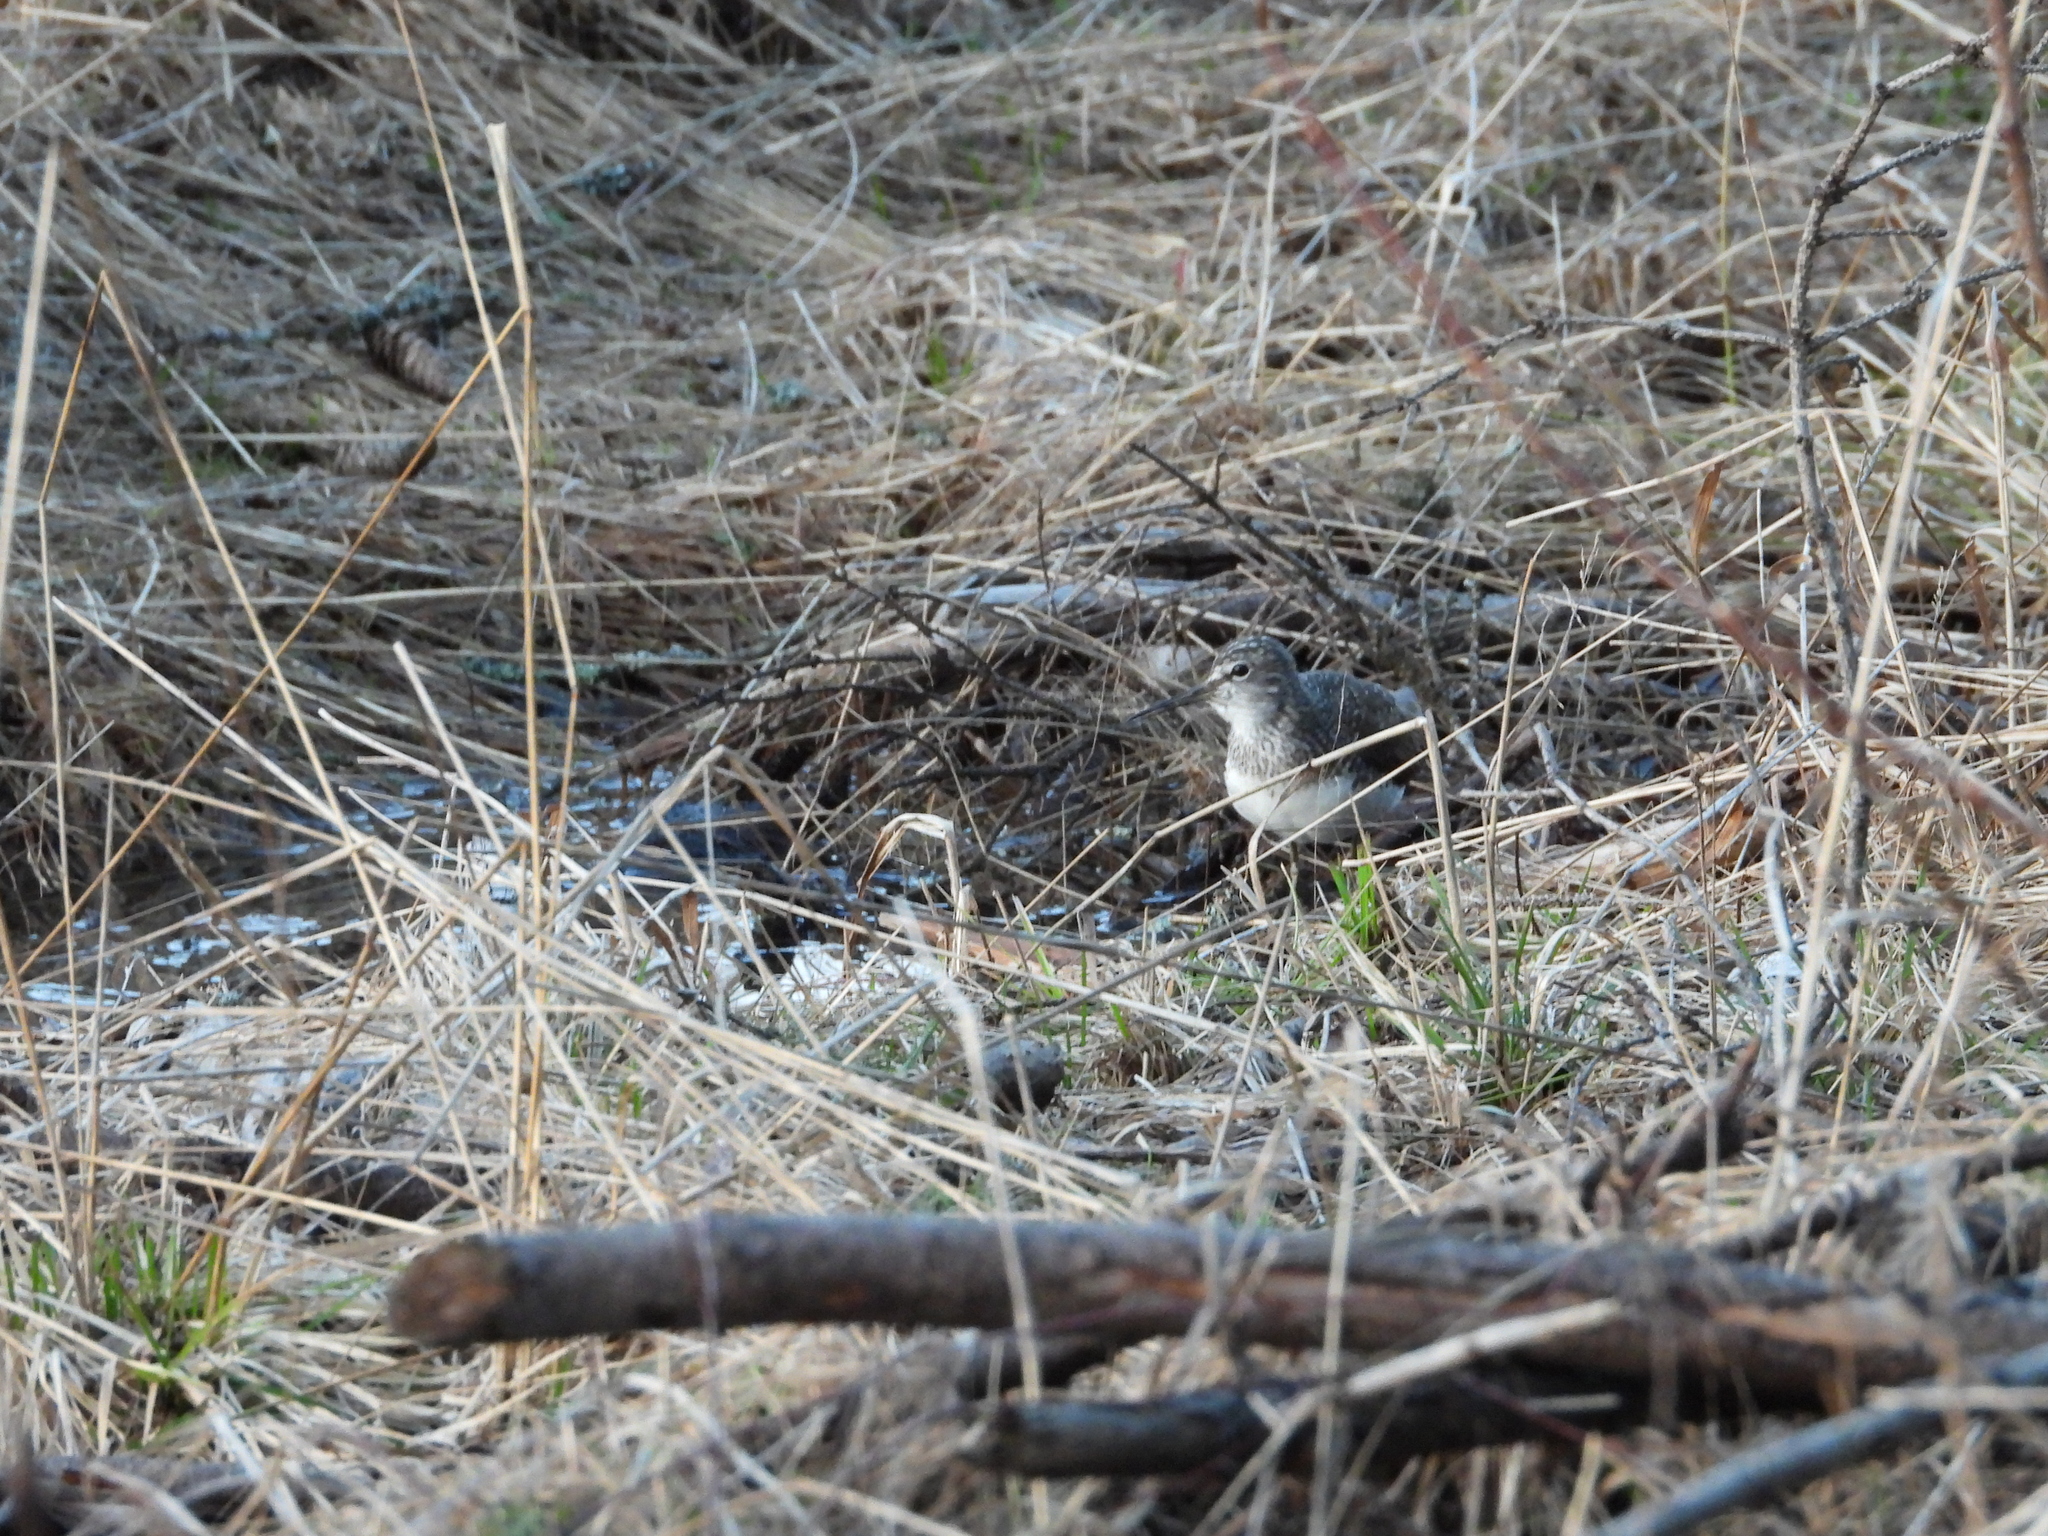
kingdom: Animalia
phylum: Chordata
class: Aves
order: Charadriiformes
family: Scolopacidae
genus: Tringa
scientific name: Tringa ochropus
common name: Green sandpiper
